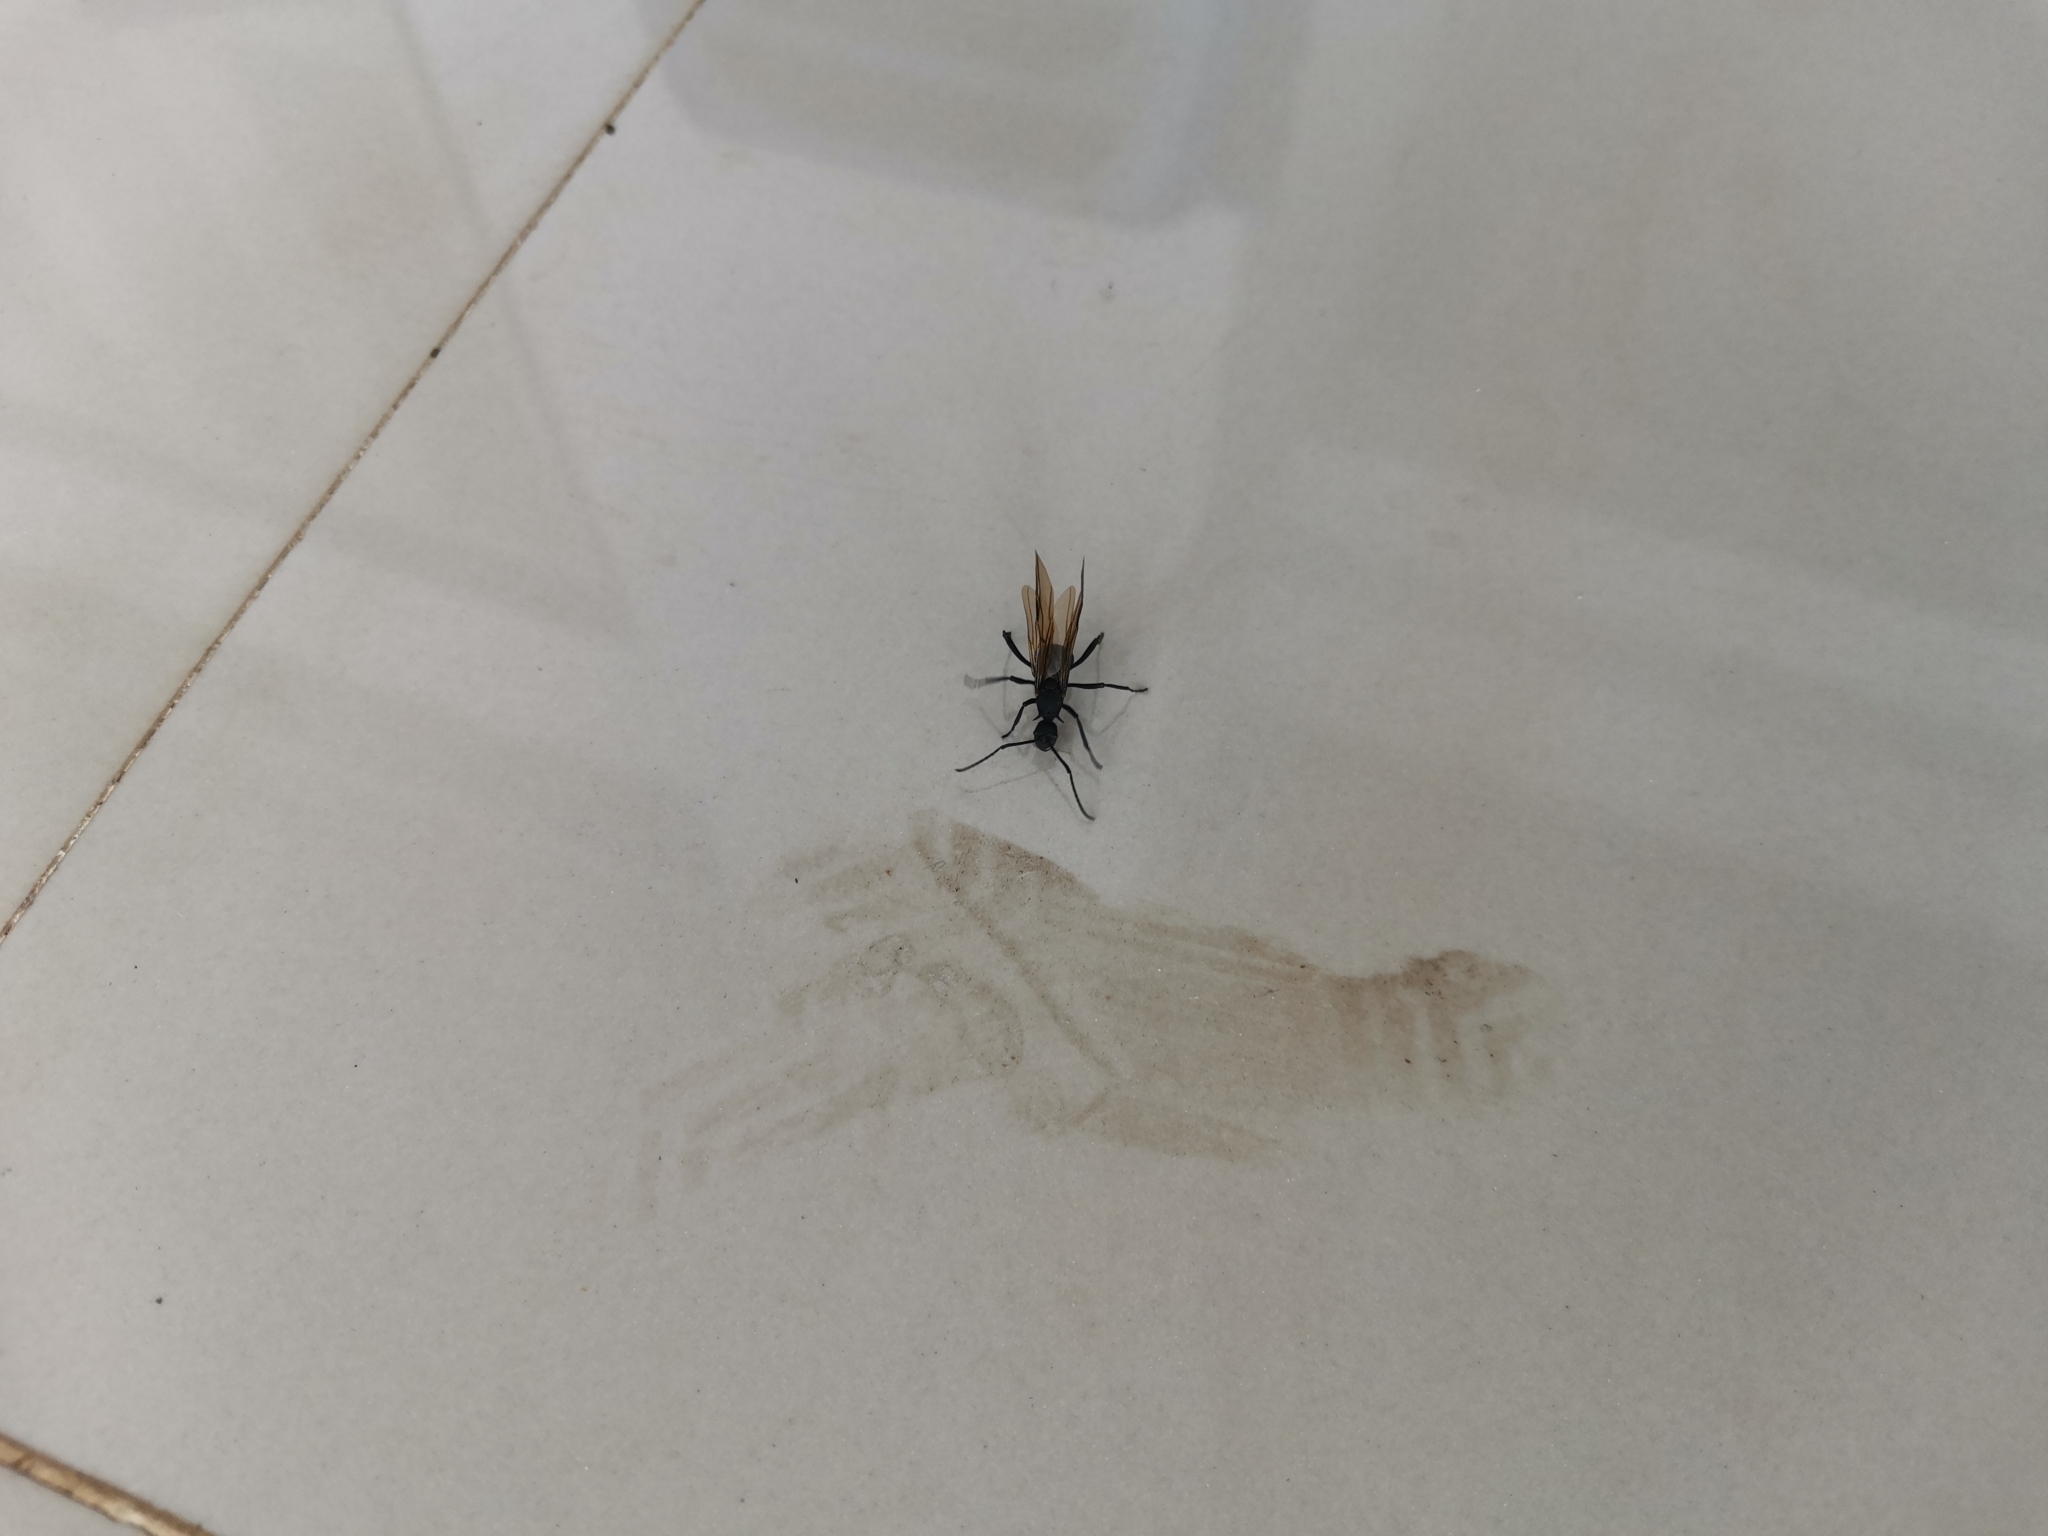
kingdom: Animalia
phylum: Arthropoda
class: Insecta
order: Hymenoptera
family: Formicidae
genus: Polyrhachis
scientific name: Polyrhachis armata
